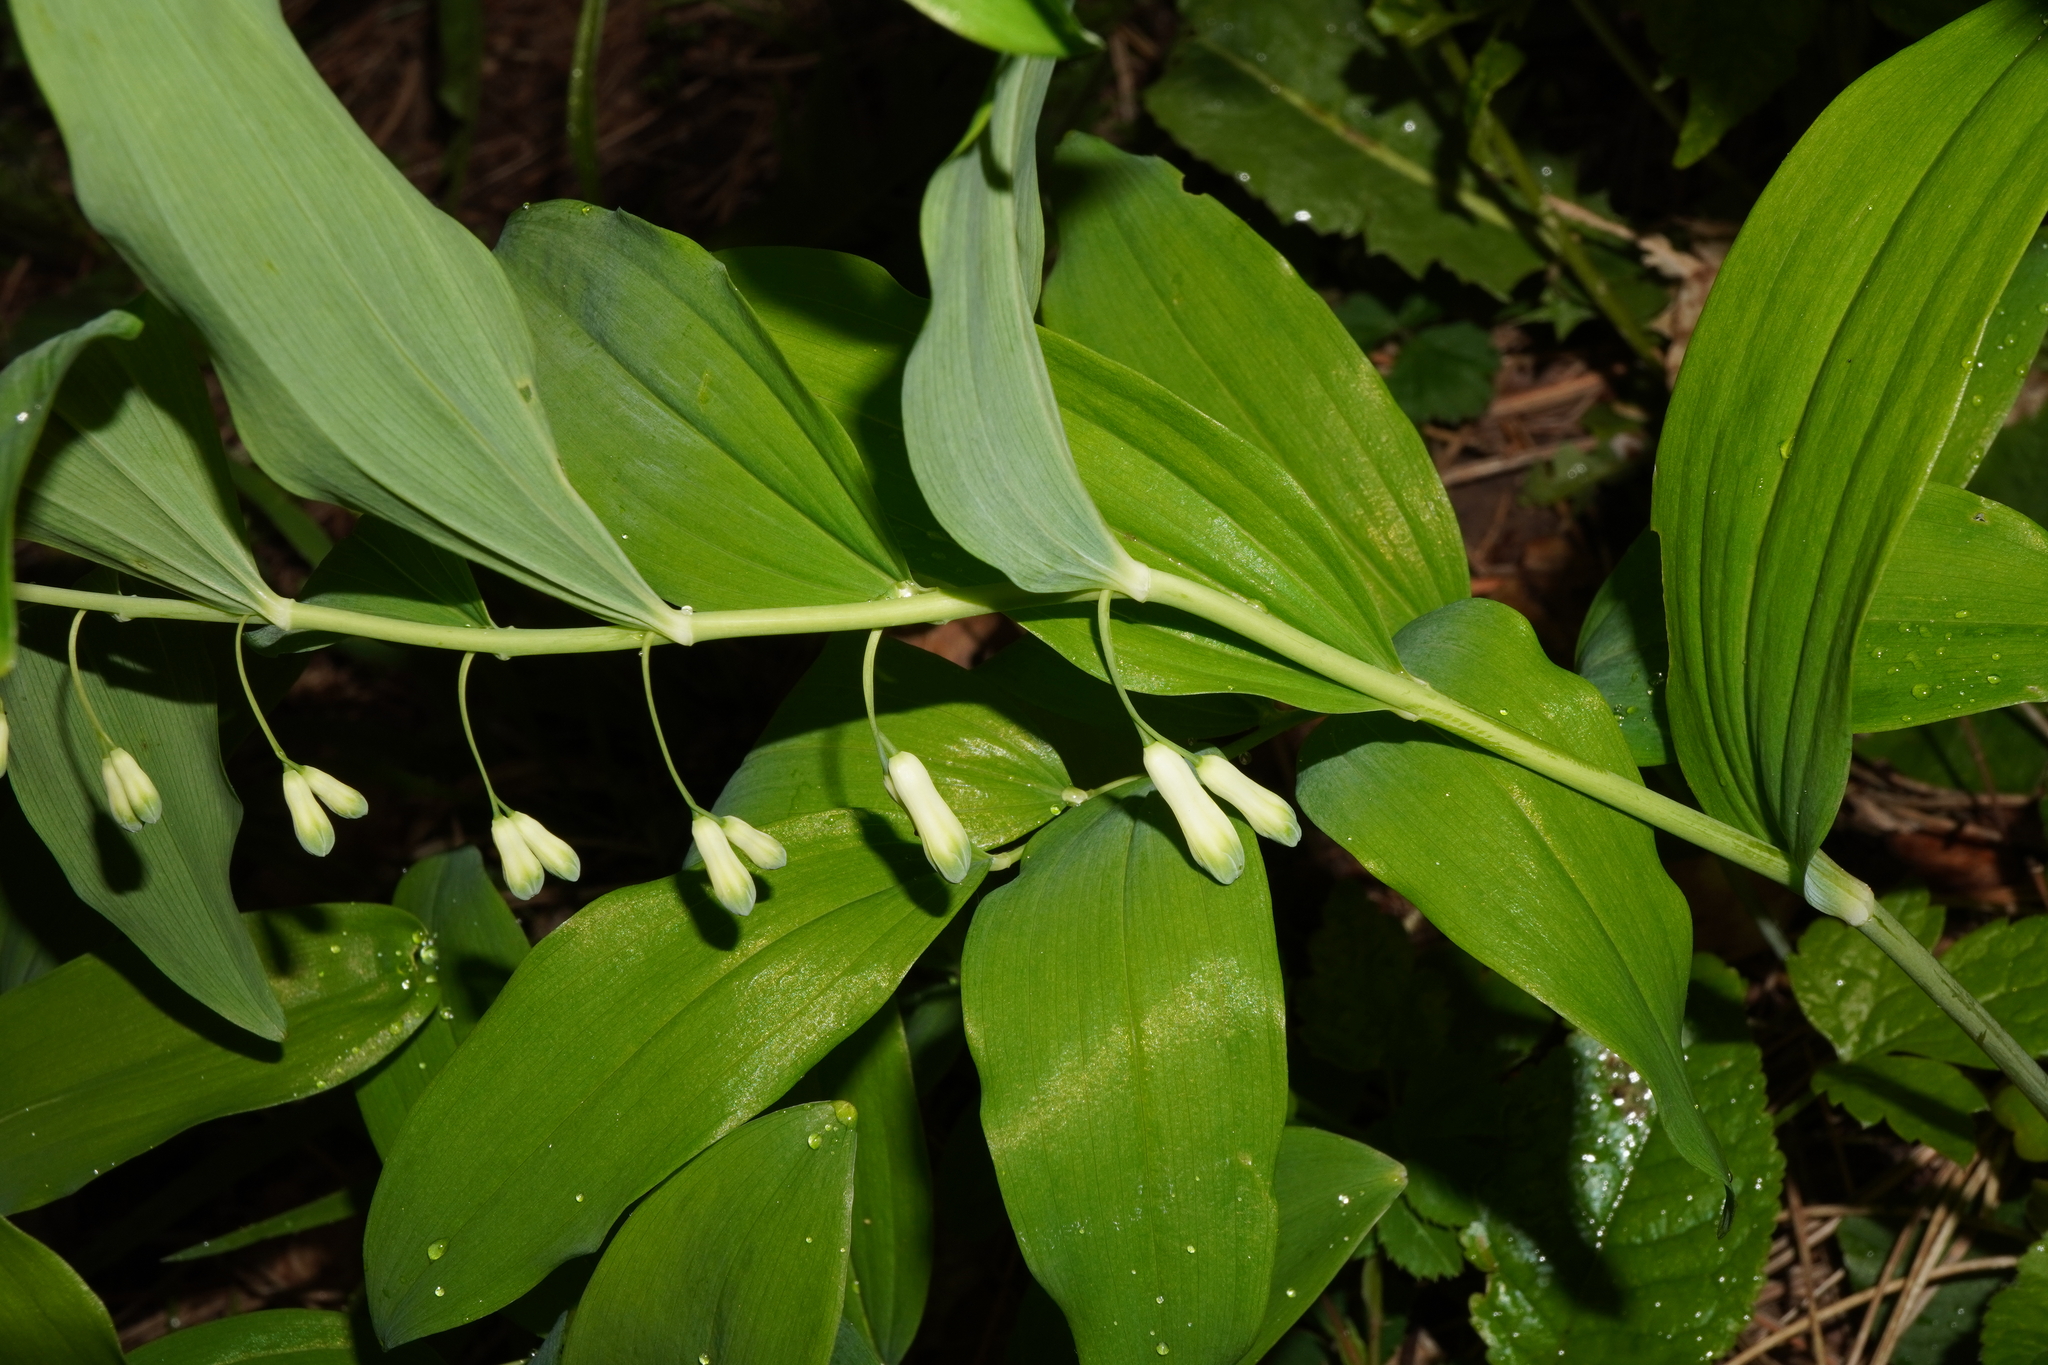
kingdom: Plantae
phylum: Tracheophyta
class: Liliopsida
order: Asparagales
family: Asparagaceae
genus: Polygonatum
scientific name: Polygonatum multiflorum
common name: Solomon's-seal
